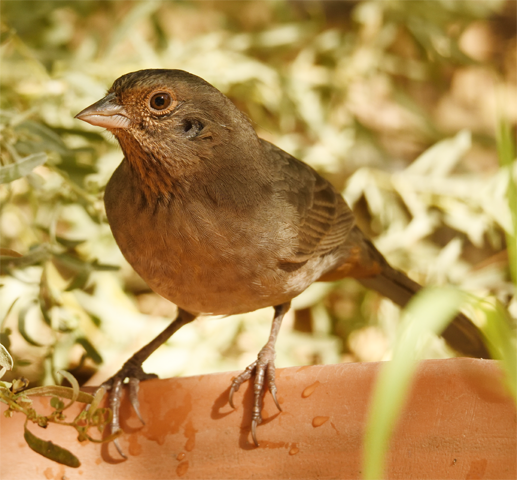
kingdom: Animalia
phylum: Chordata
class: Aves
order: Passeriformes
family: Passerellidae
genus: Melozone
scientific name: Melozone crissalis
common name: California towhee
